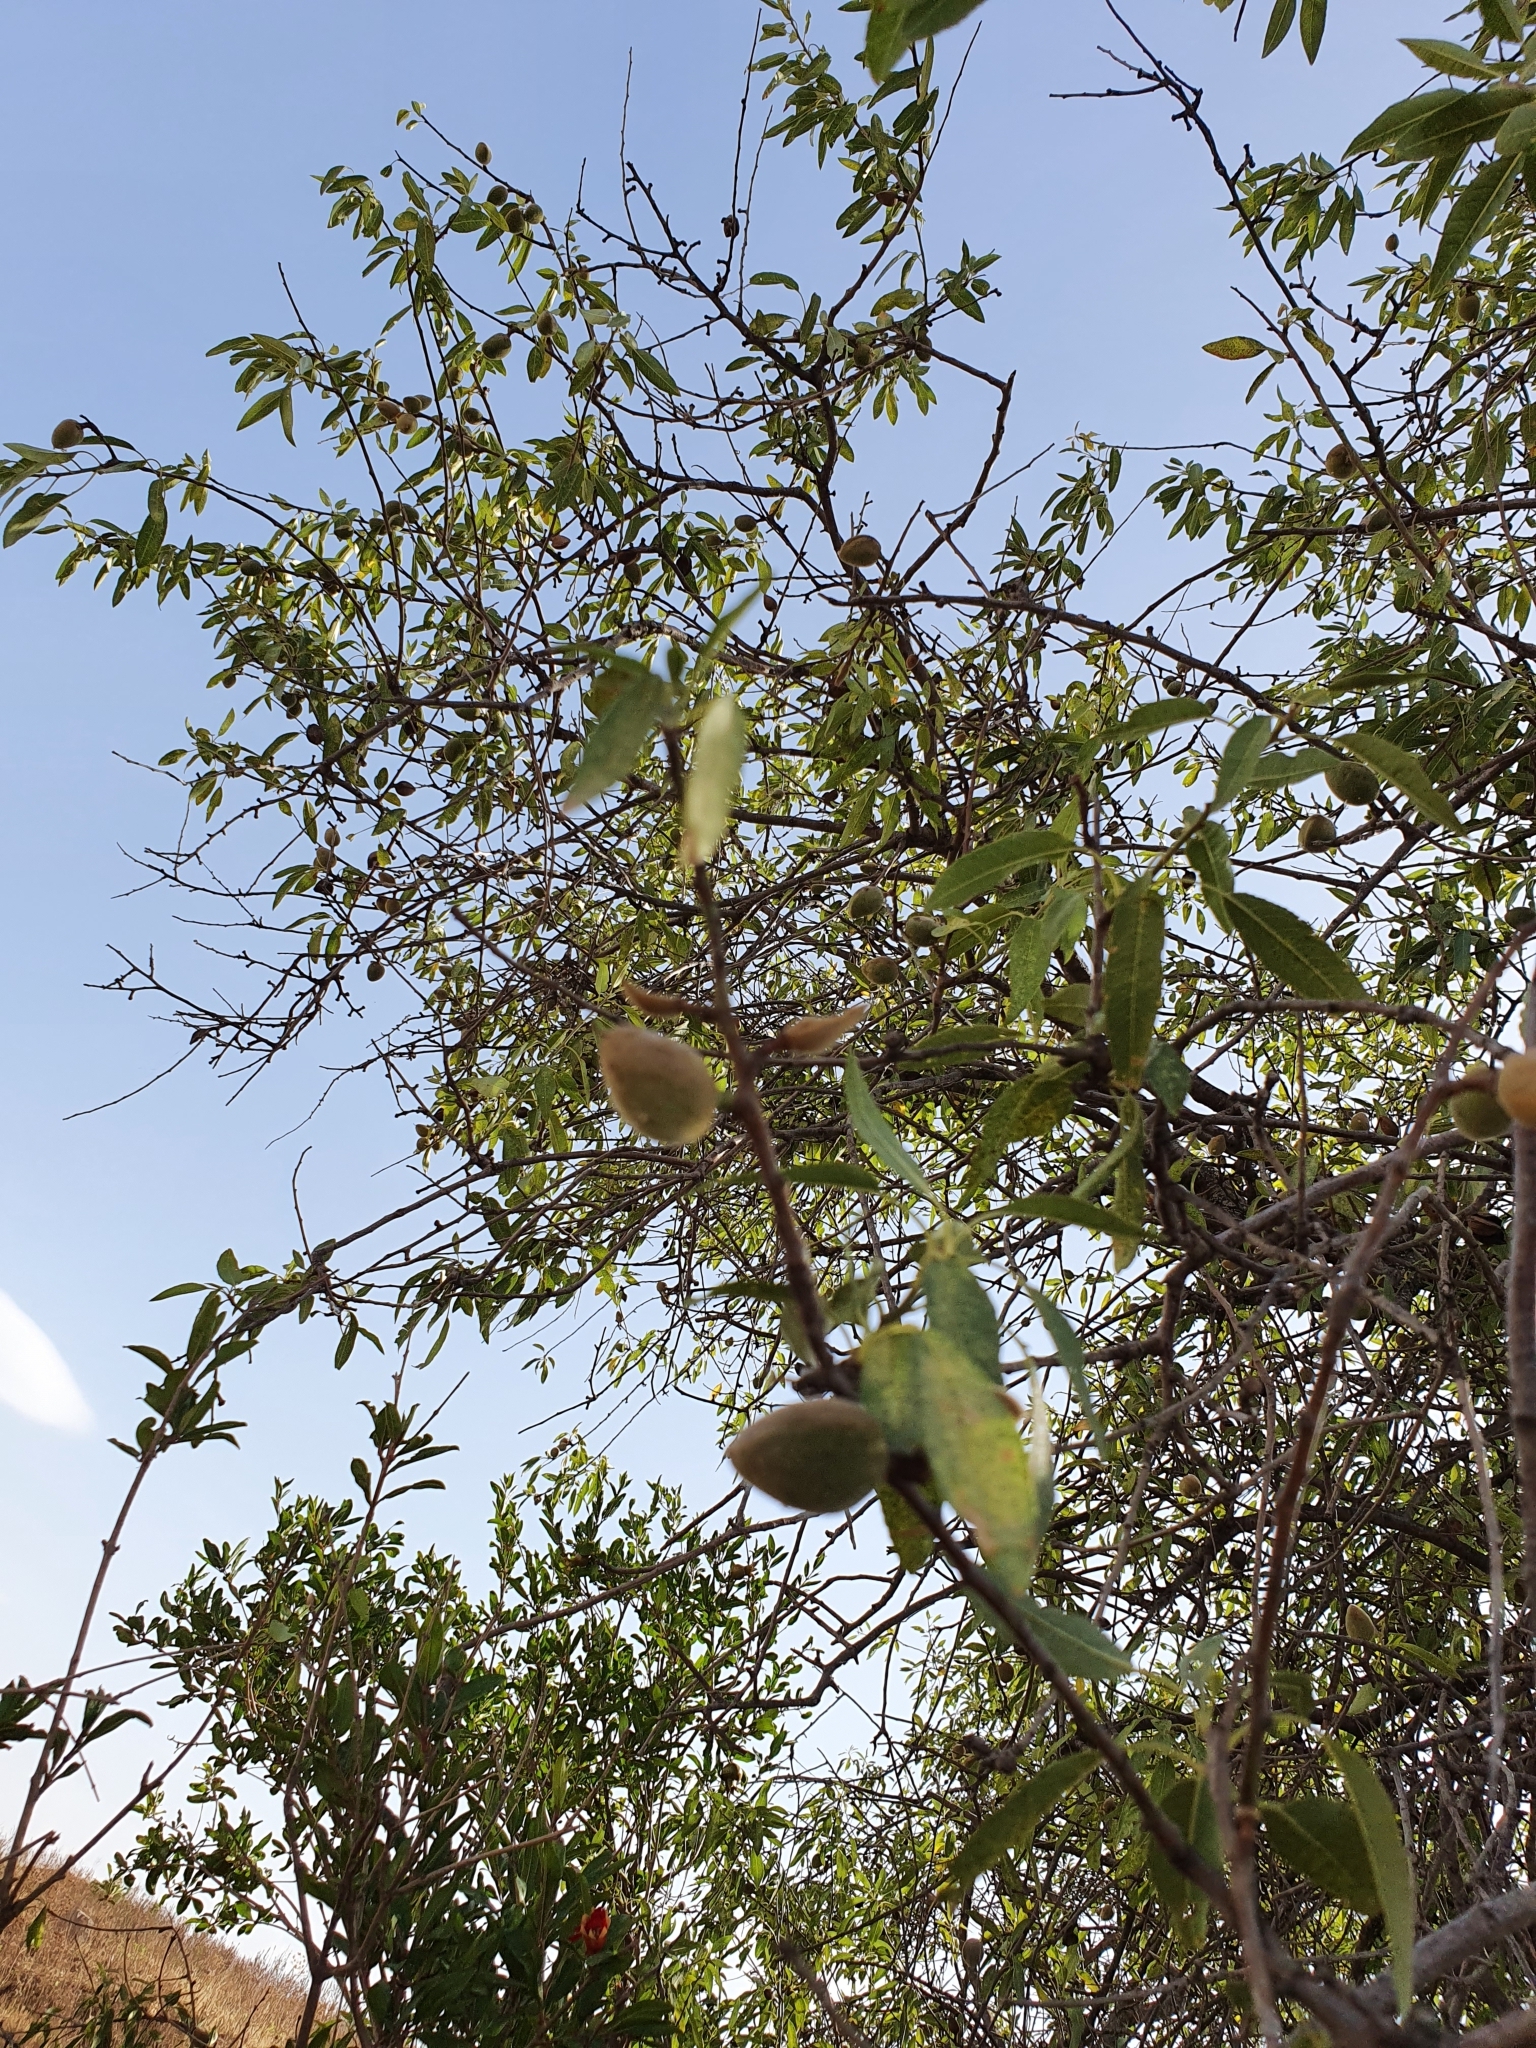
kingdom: Plantae
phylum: Tracheophyta
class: Magnoliopsida
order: Rosales
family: Rosaceae
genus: Prunus
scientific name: Prunus amygdalus
